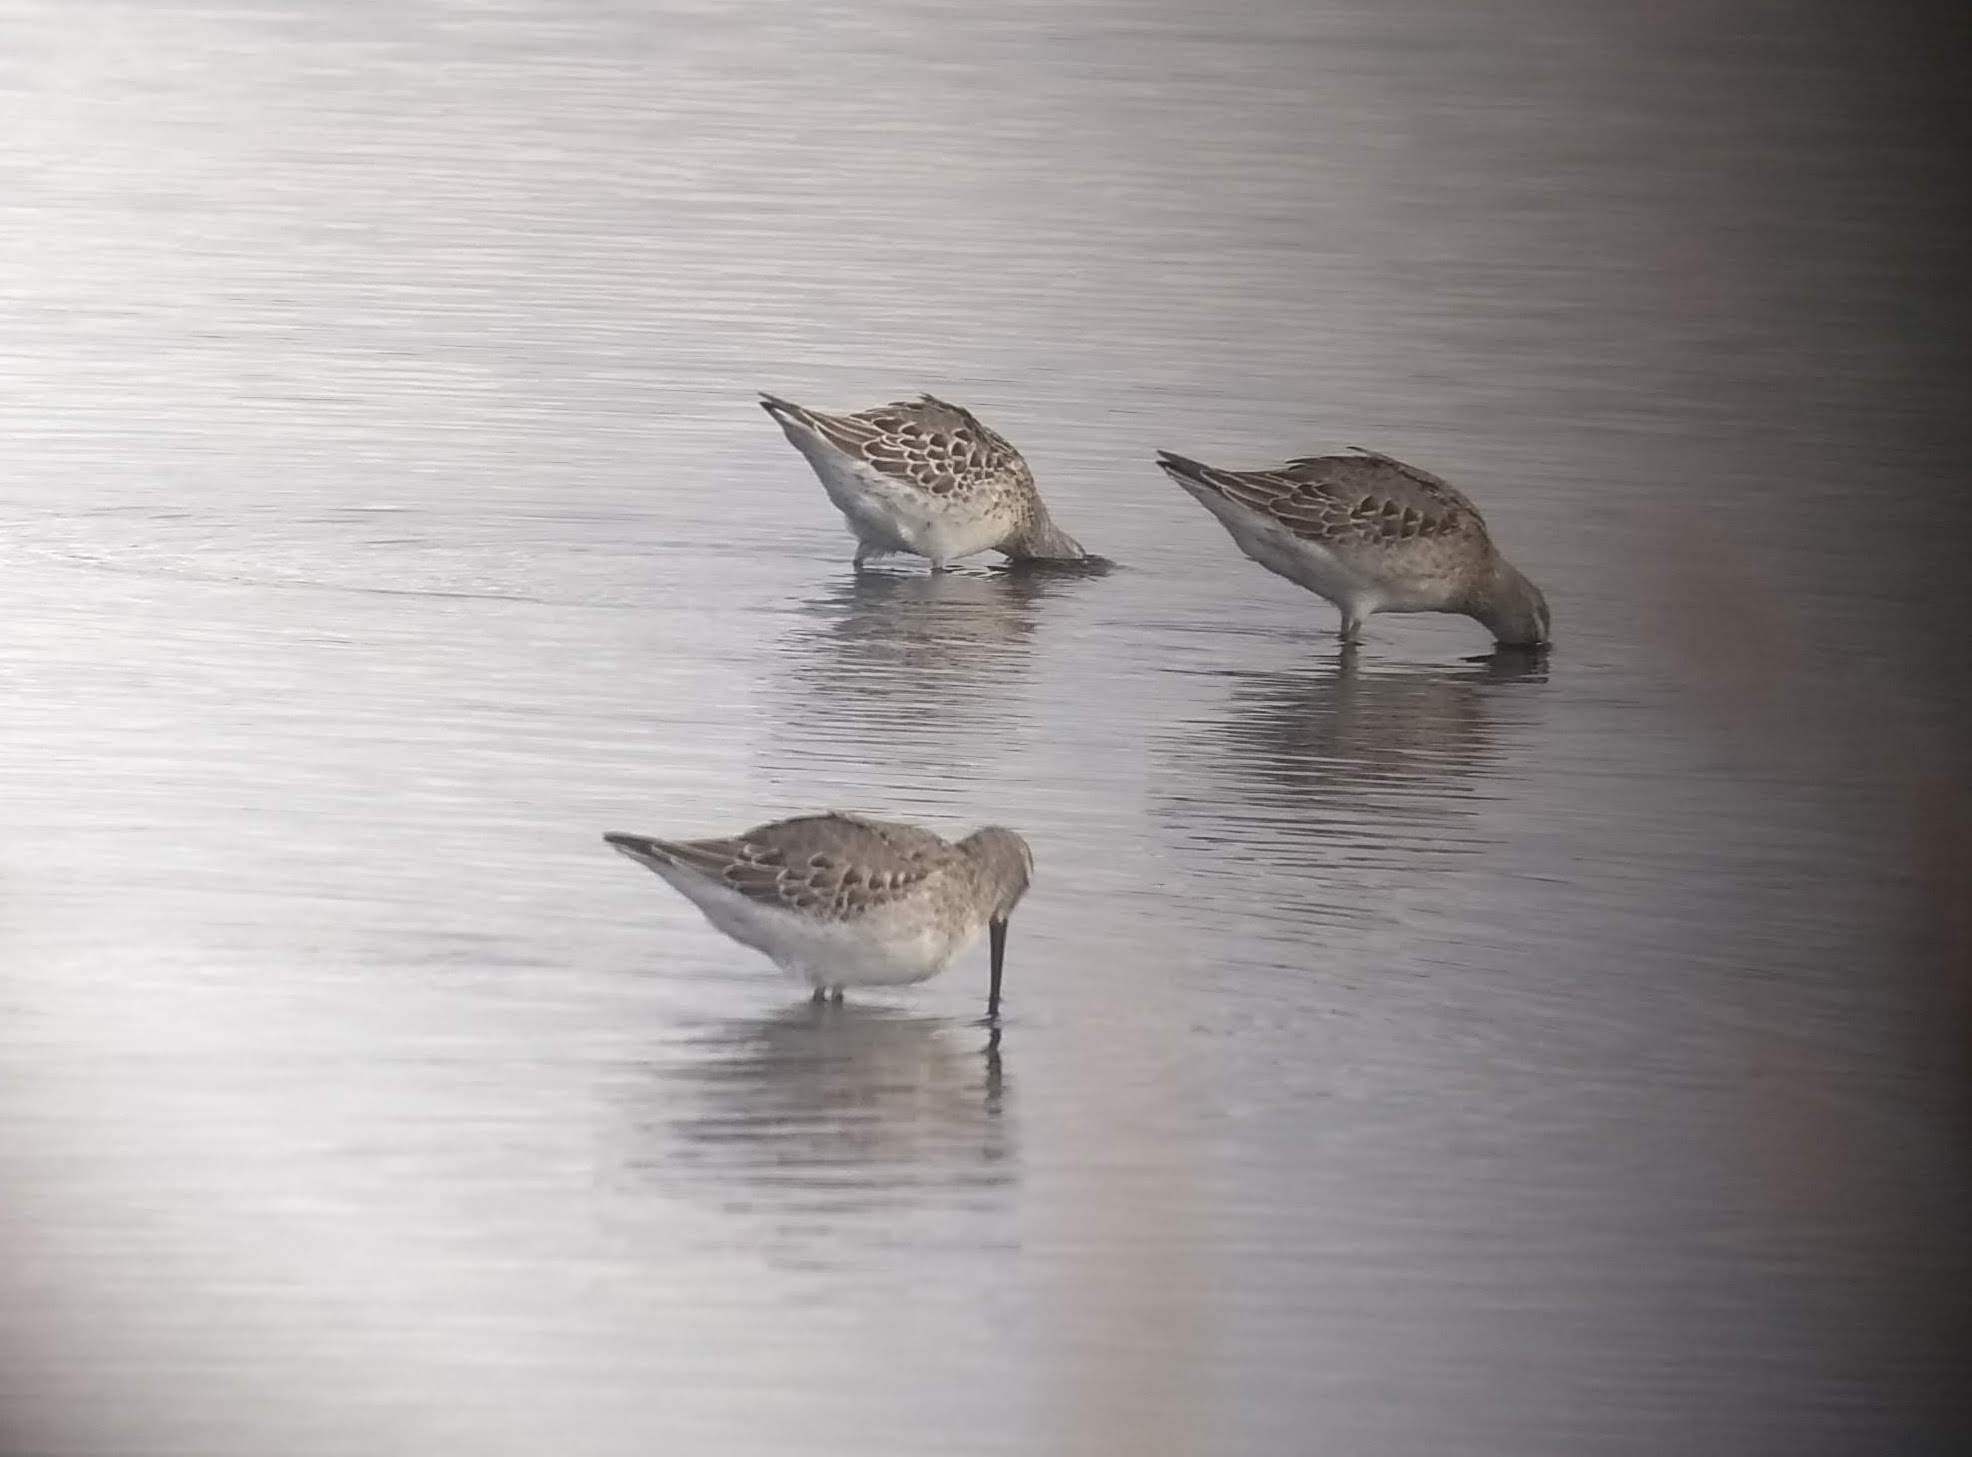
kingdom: Animalia
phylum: Chordata
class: Aves
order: Charadriiformes
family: Scolopacidae
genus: Calidris
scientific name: Calidris himantopus
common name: Stilt sandpiper
